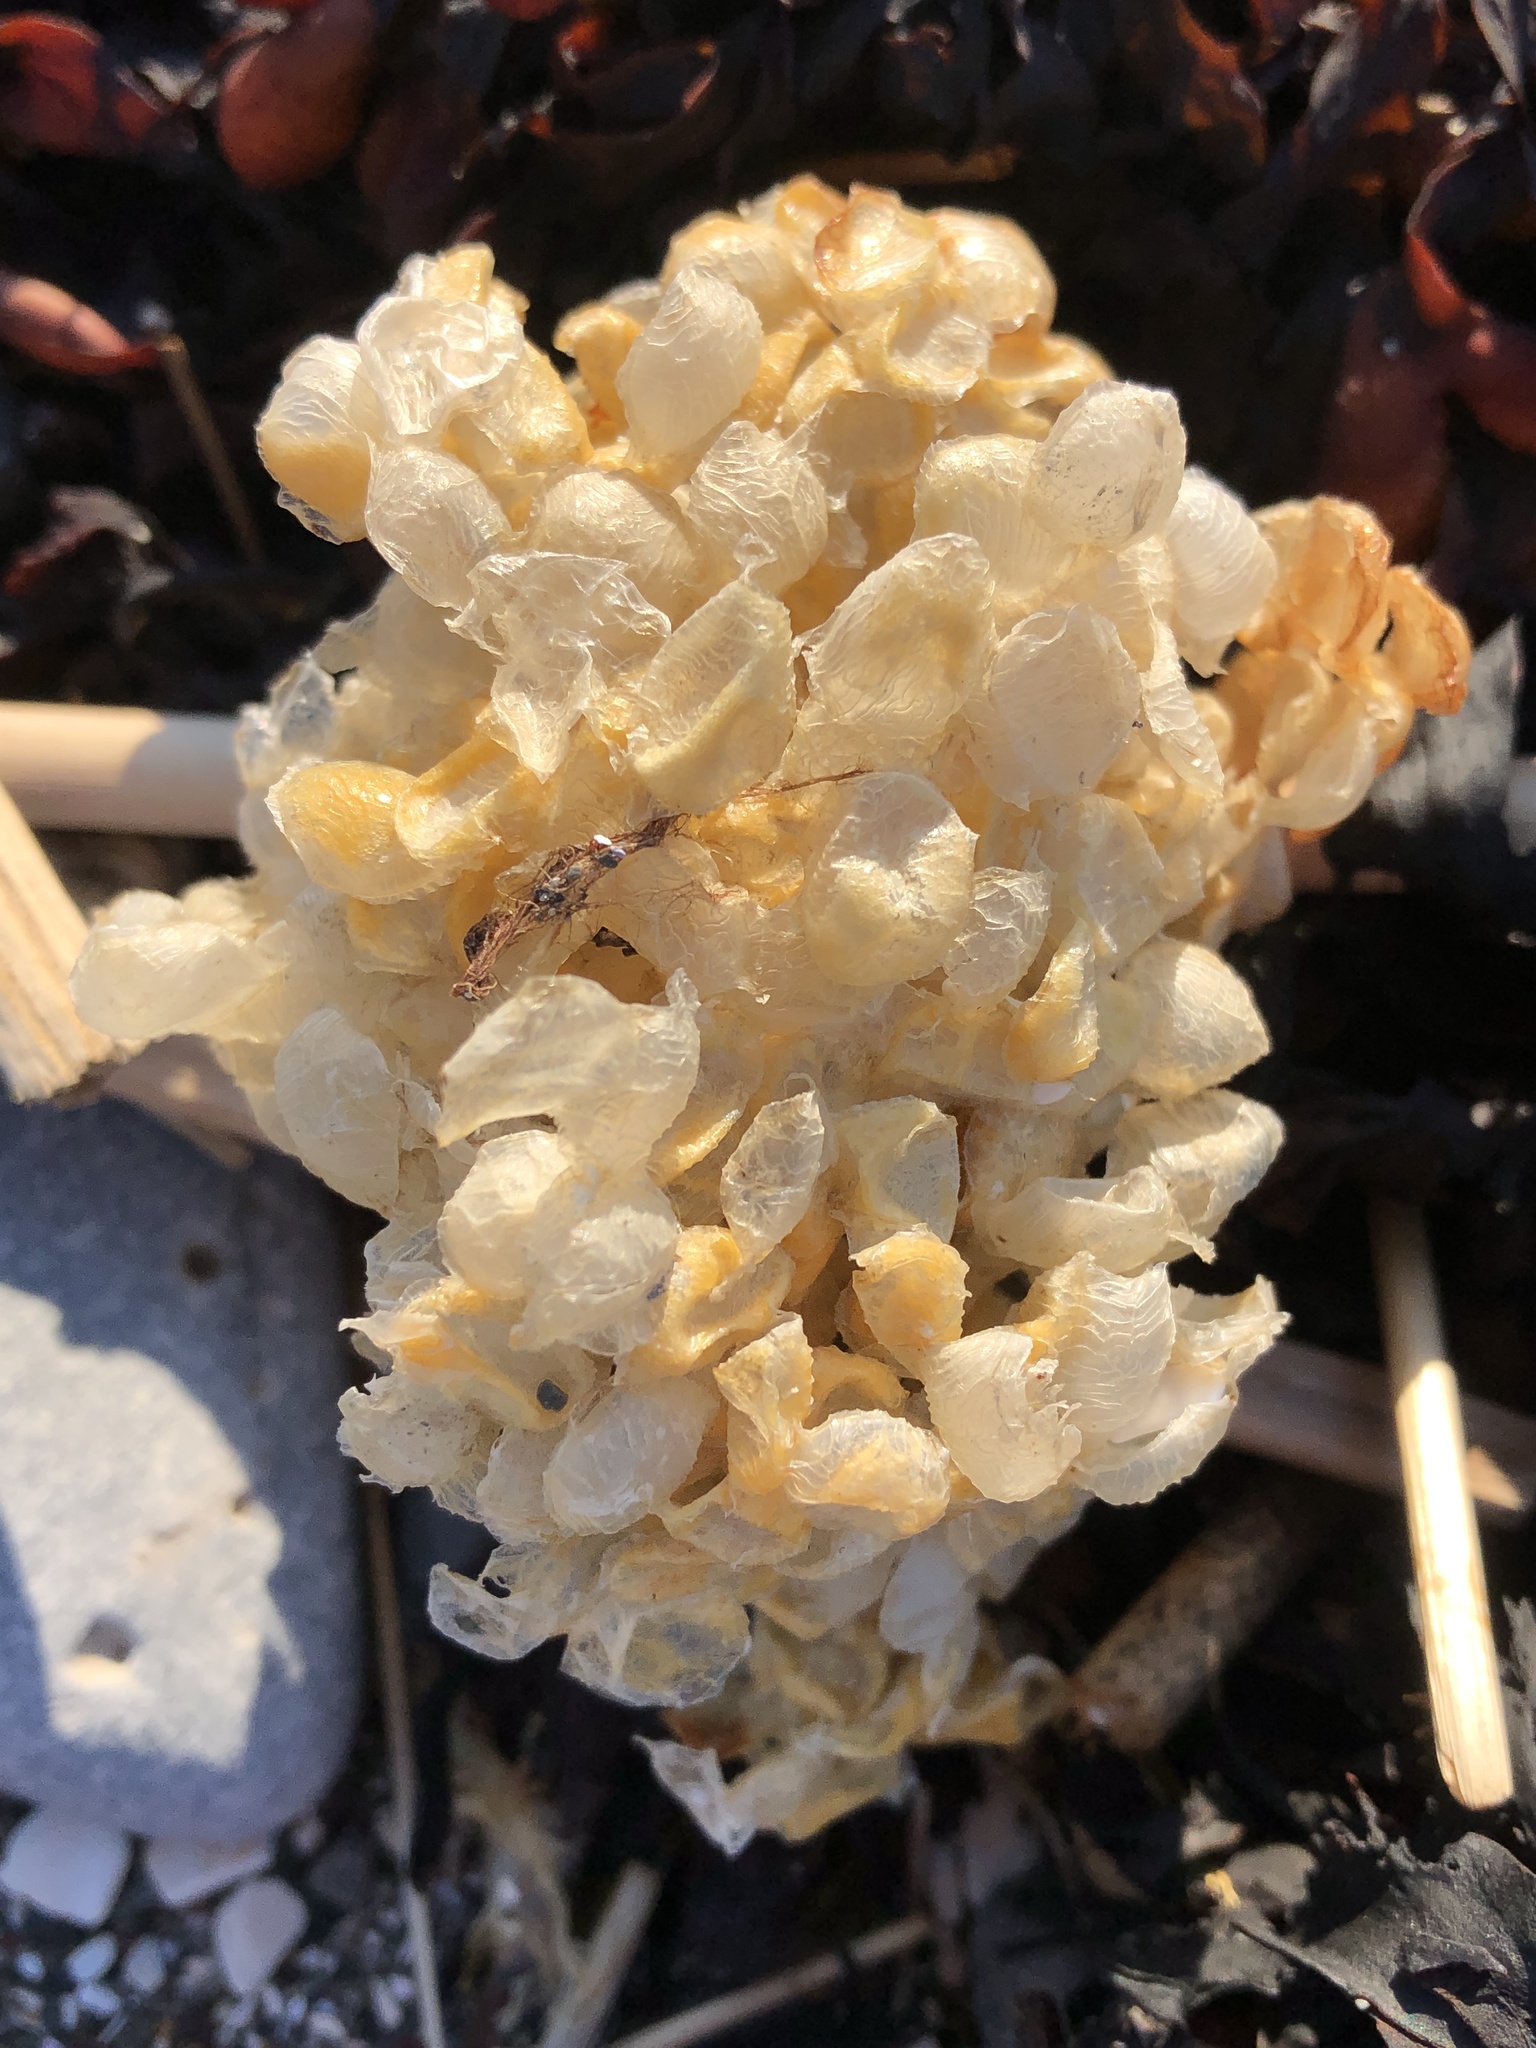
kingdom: Animalia
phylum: Mollusca
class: Gastropoda
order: Neogastropoda
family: Buccinidae
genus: Buccinum
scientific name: Buccinum undatum
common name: Common whelk
